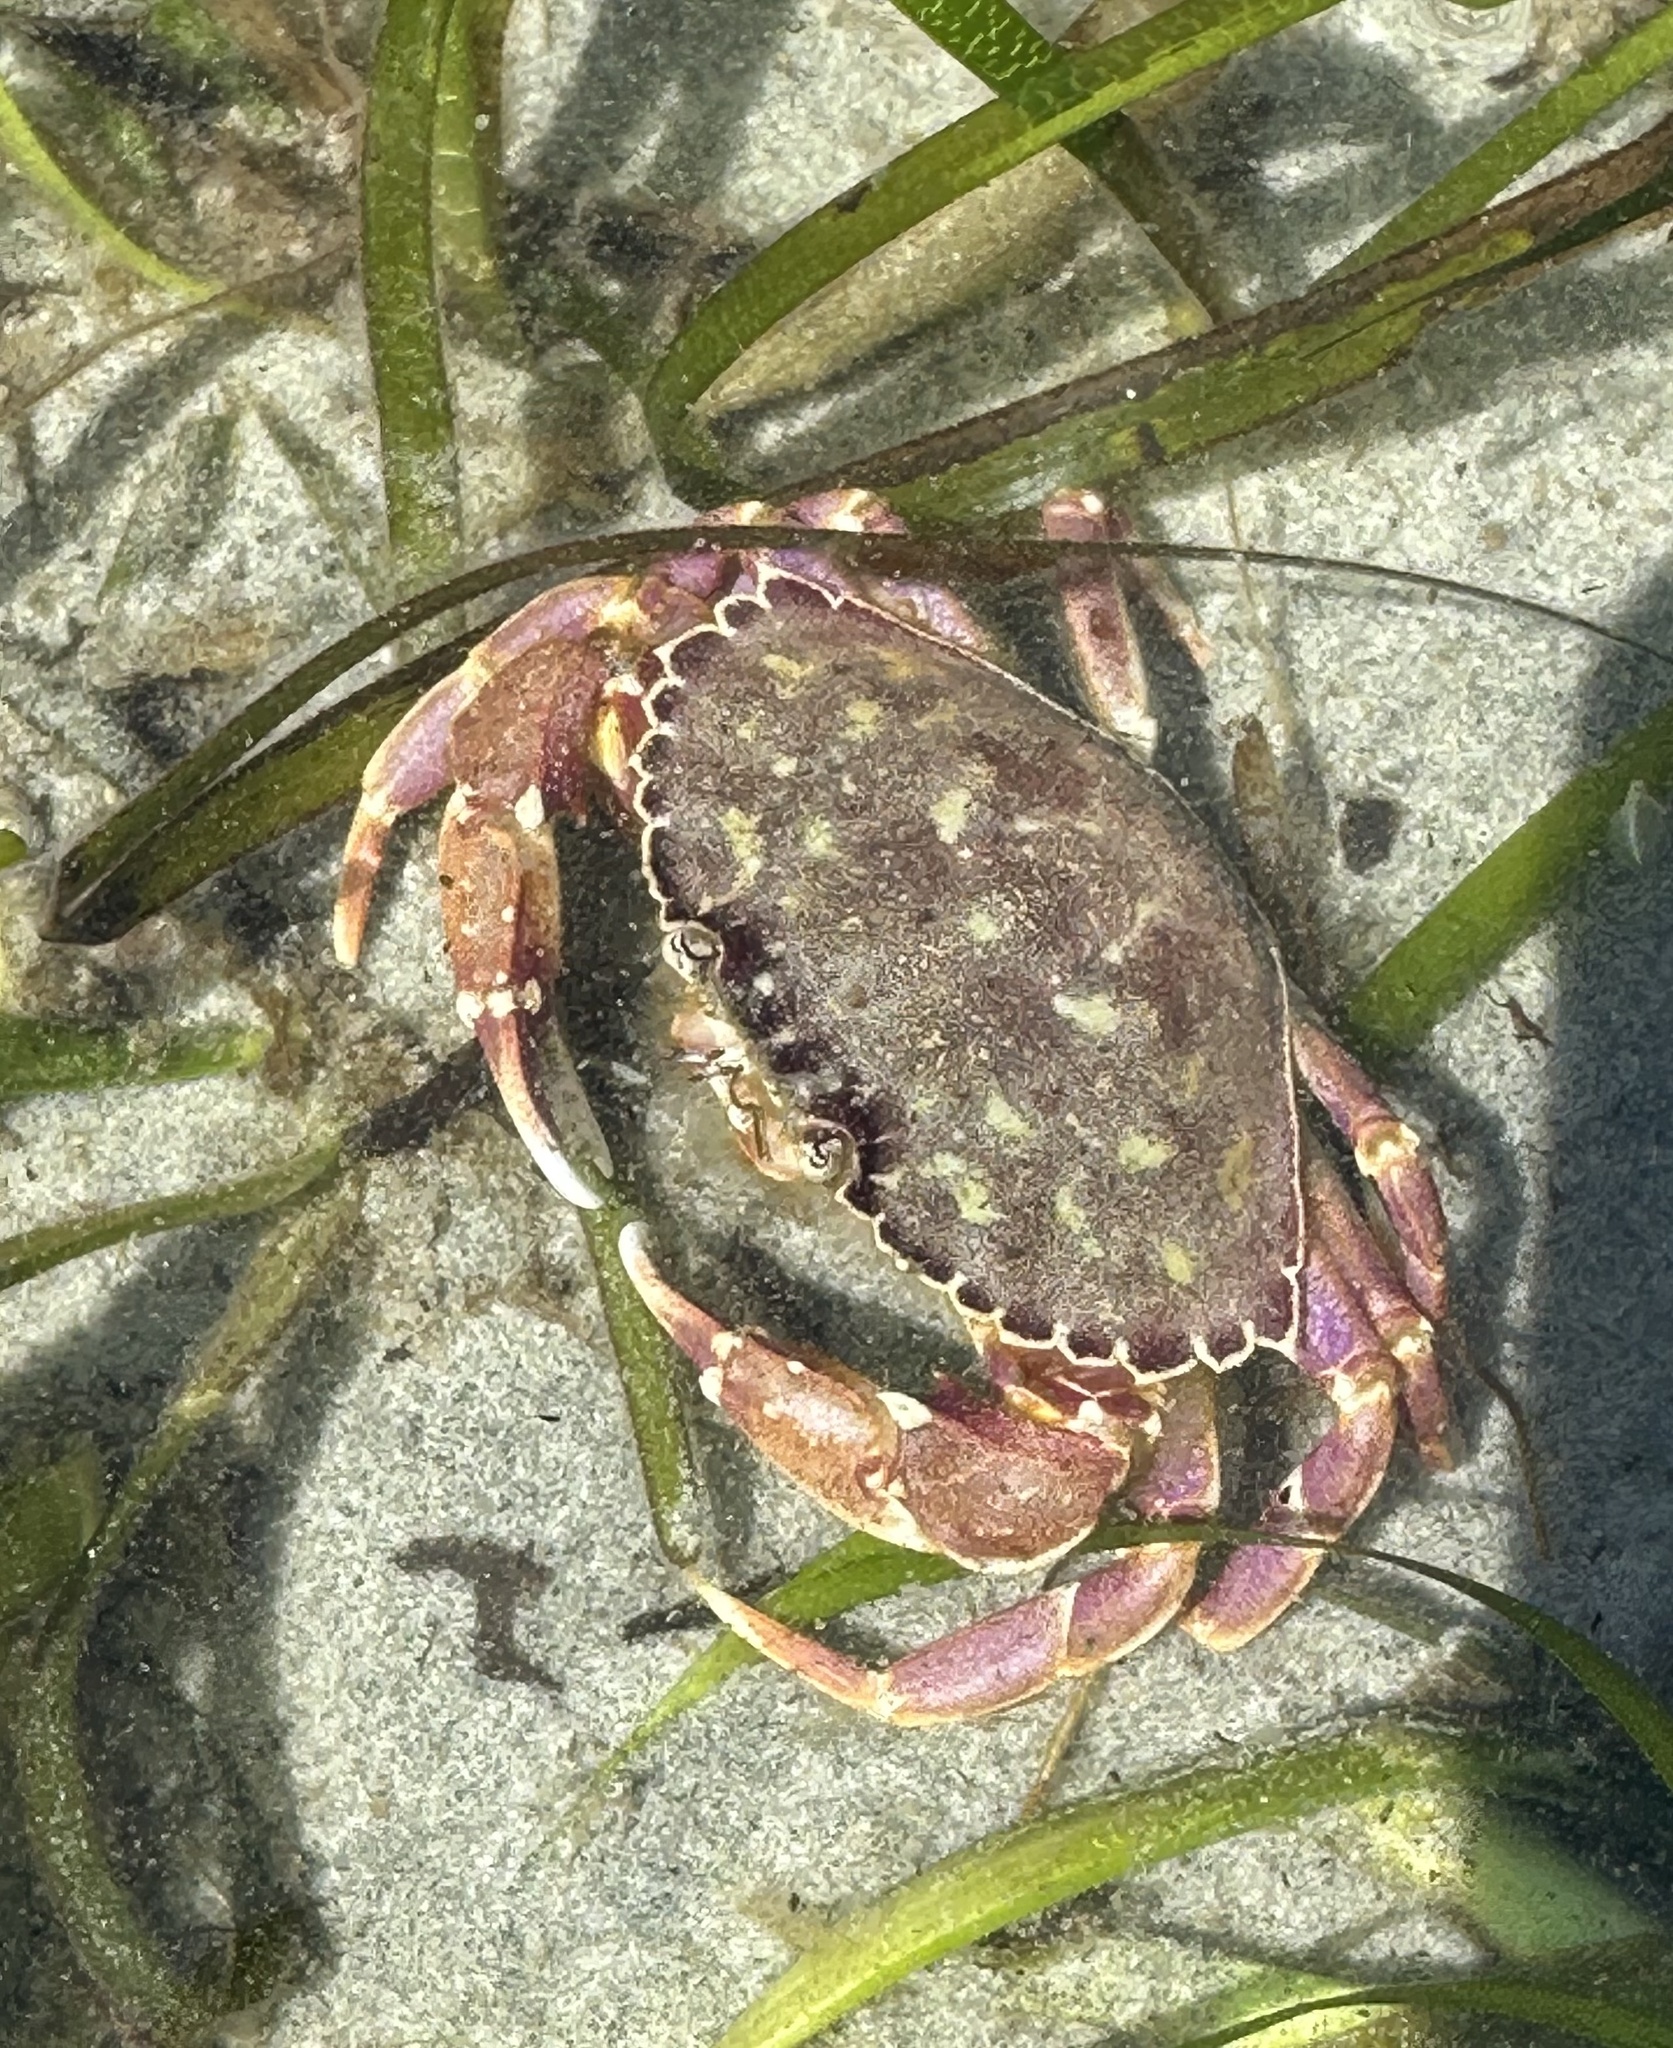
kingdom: Animalia
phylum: Arthropoda
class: Malacostraca
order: Decapoda
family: Cancridae
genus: Metacarcinus
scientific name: Metacarcinus gracilis
